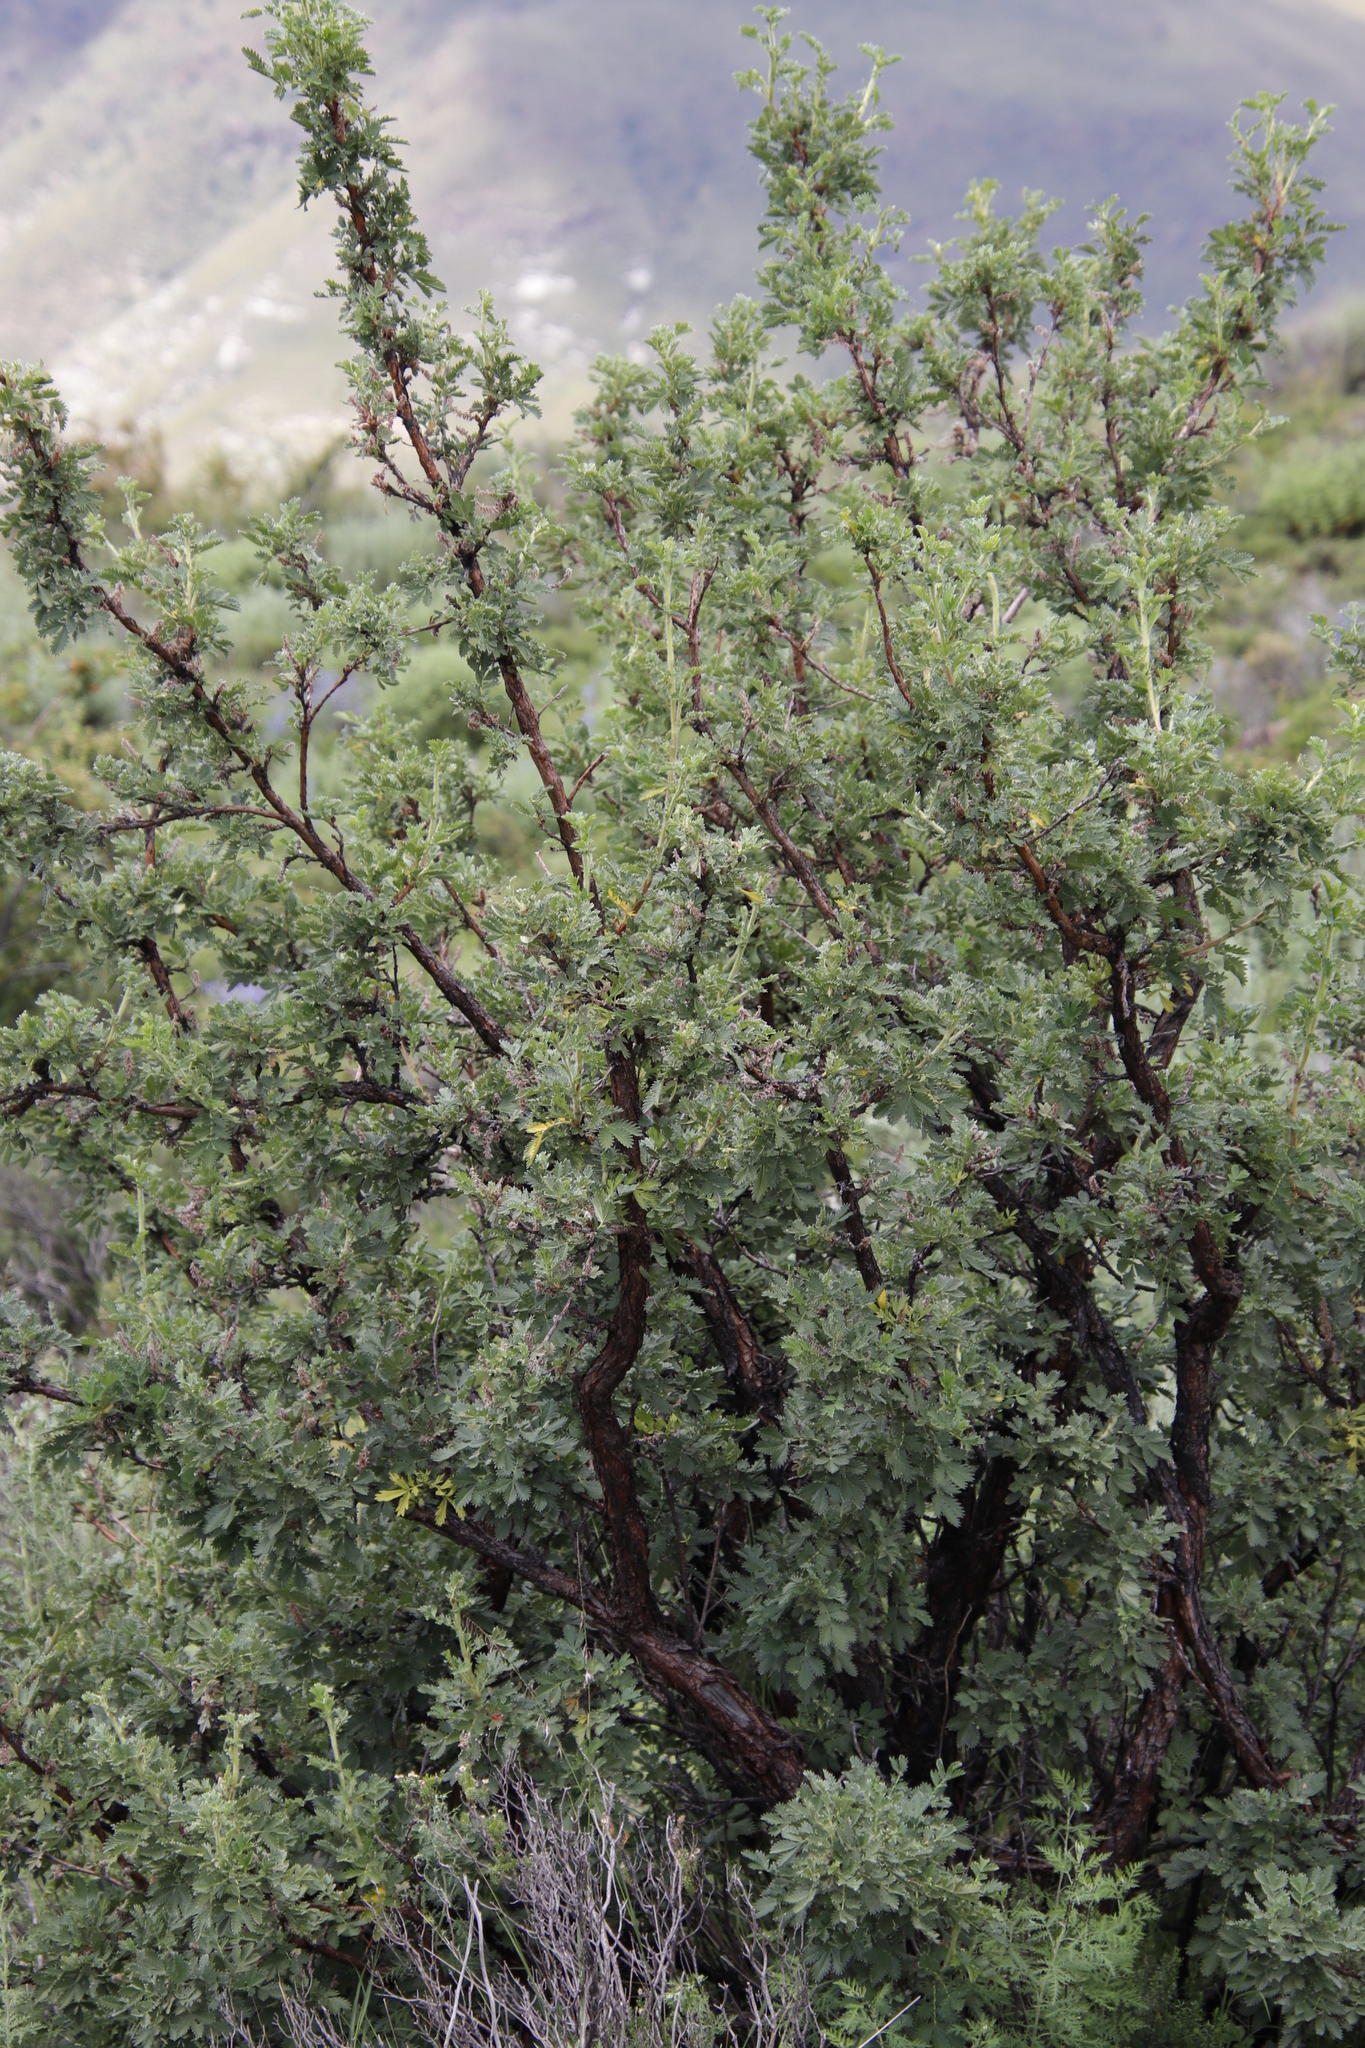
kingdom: Plantae
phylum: Tracheophyta
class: Magnoliopsida
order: Rosales
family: Rosaceae
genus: Leucosidea
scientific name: Leucosidea sericea
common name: Oldwood
